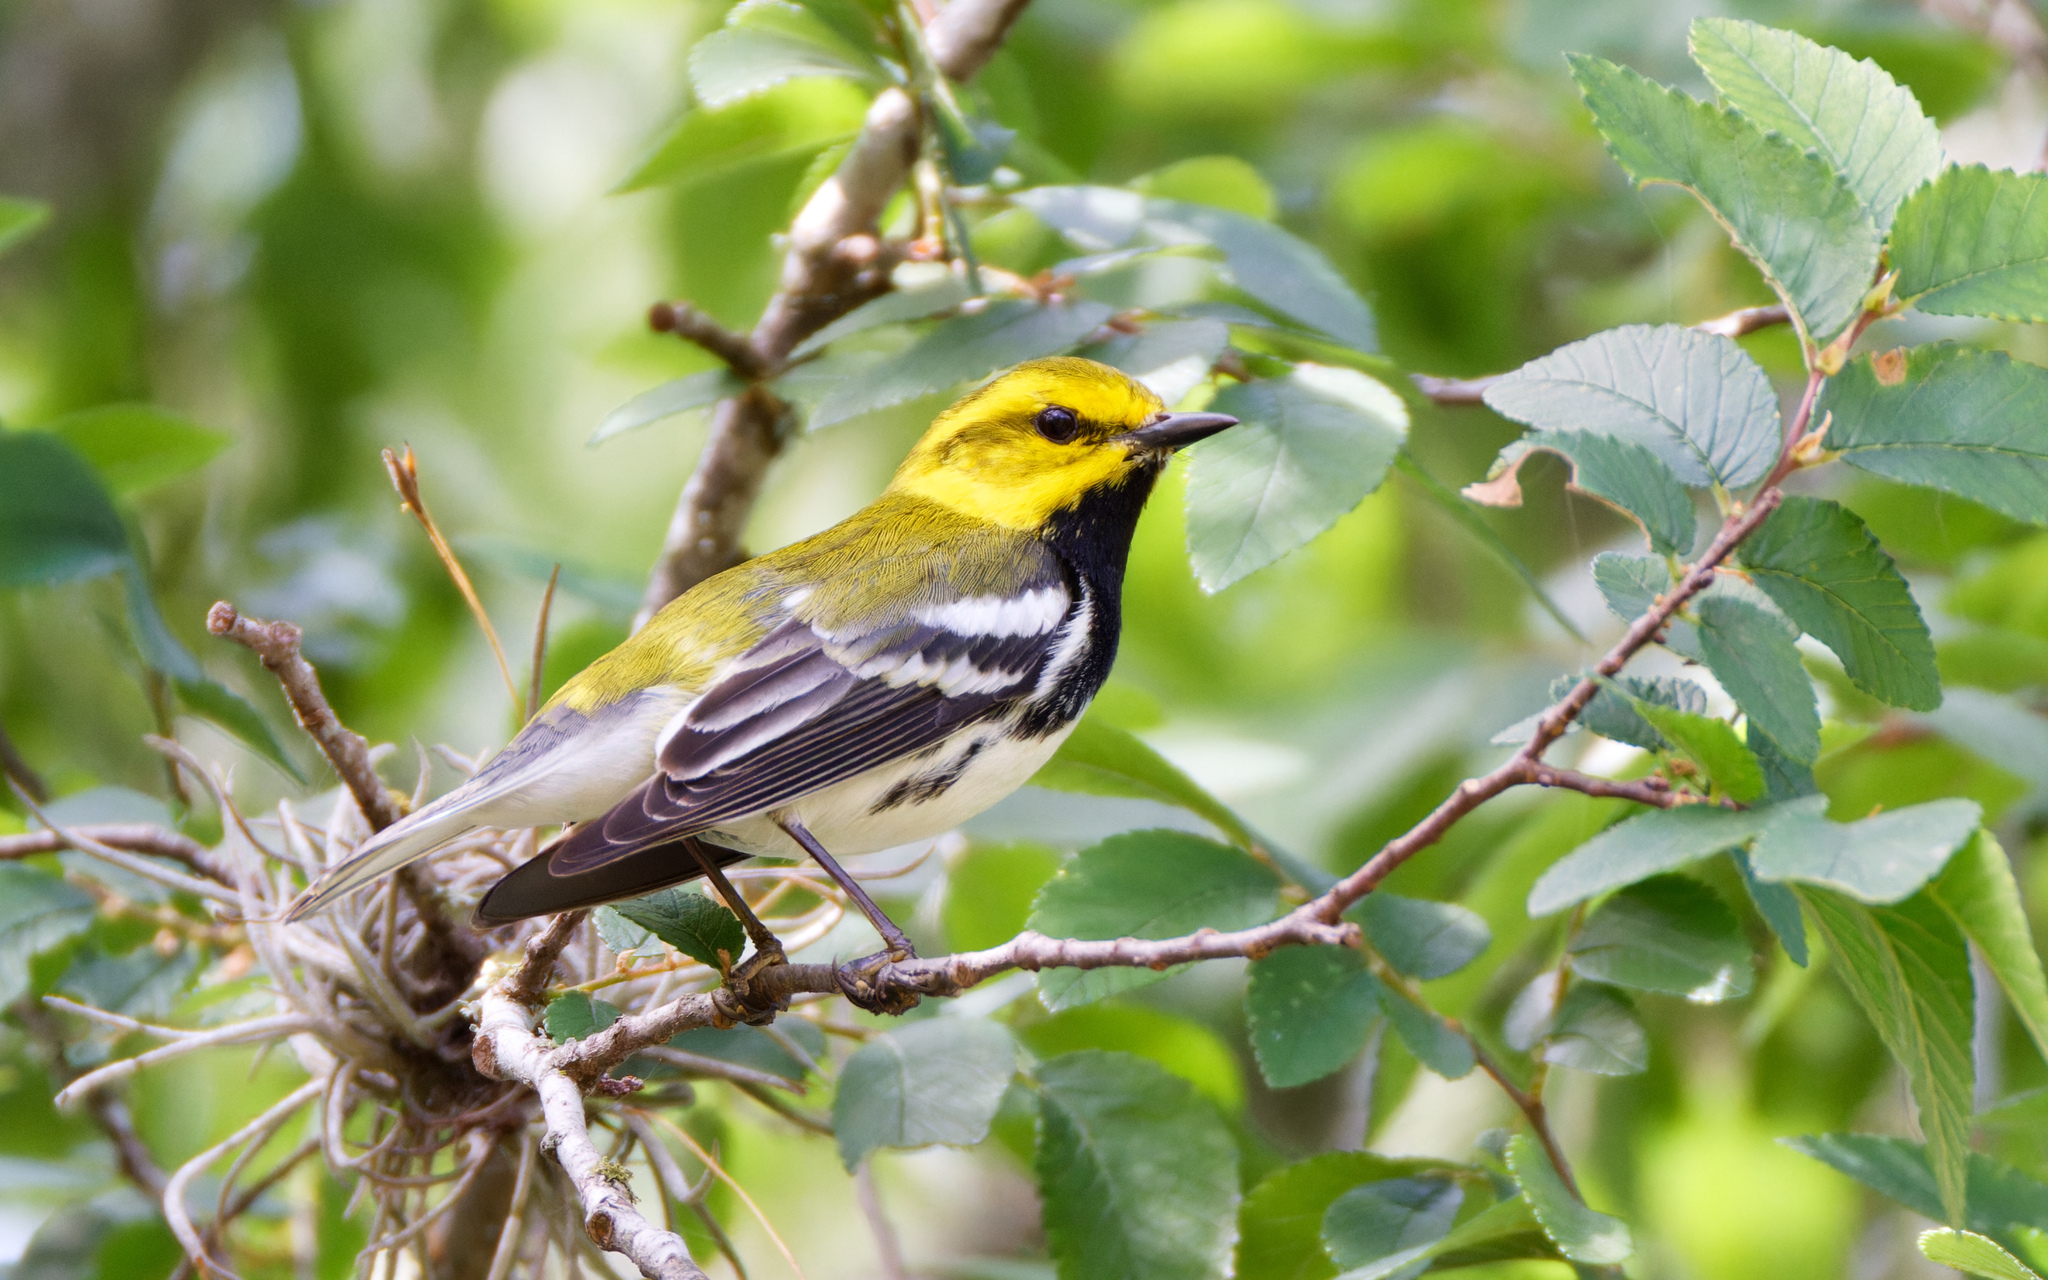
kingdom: Animalia
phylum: Chordata
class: Aves
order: Passeriformes
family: Parulidae
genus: Setophaga
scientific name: Setophaga virens
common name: Black-throated green warbler
